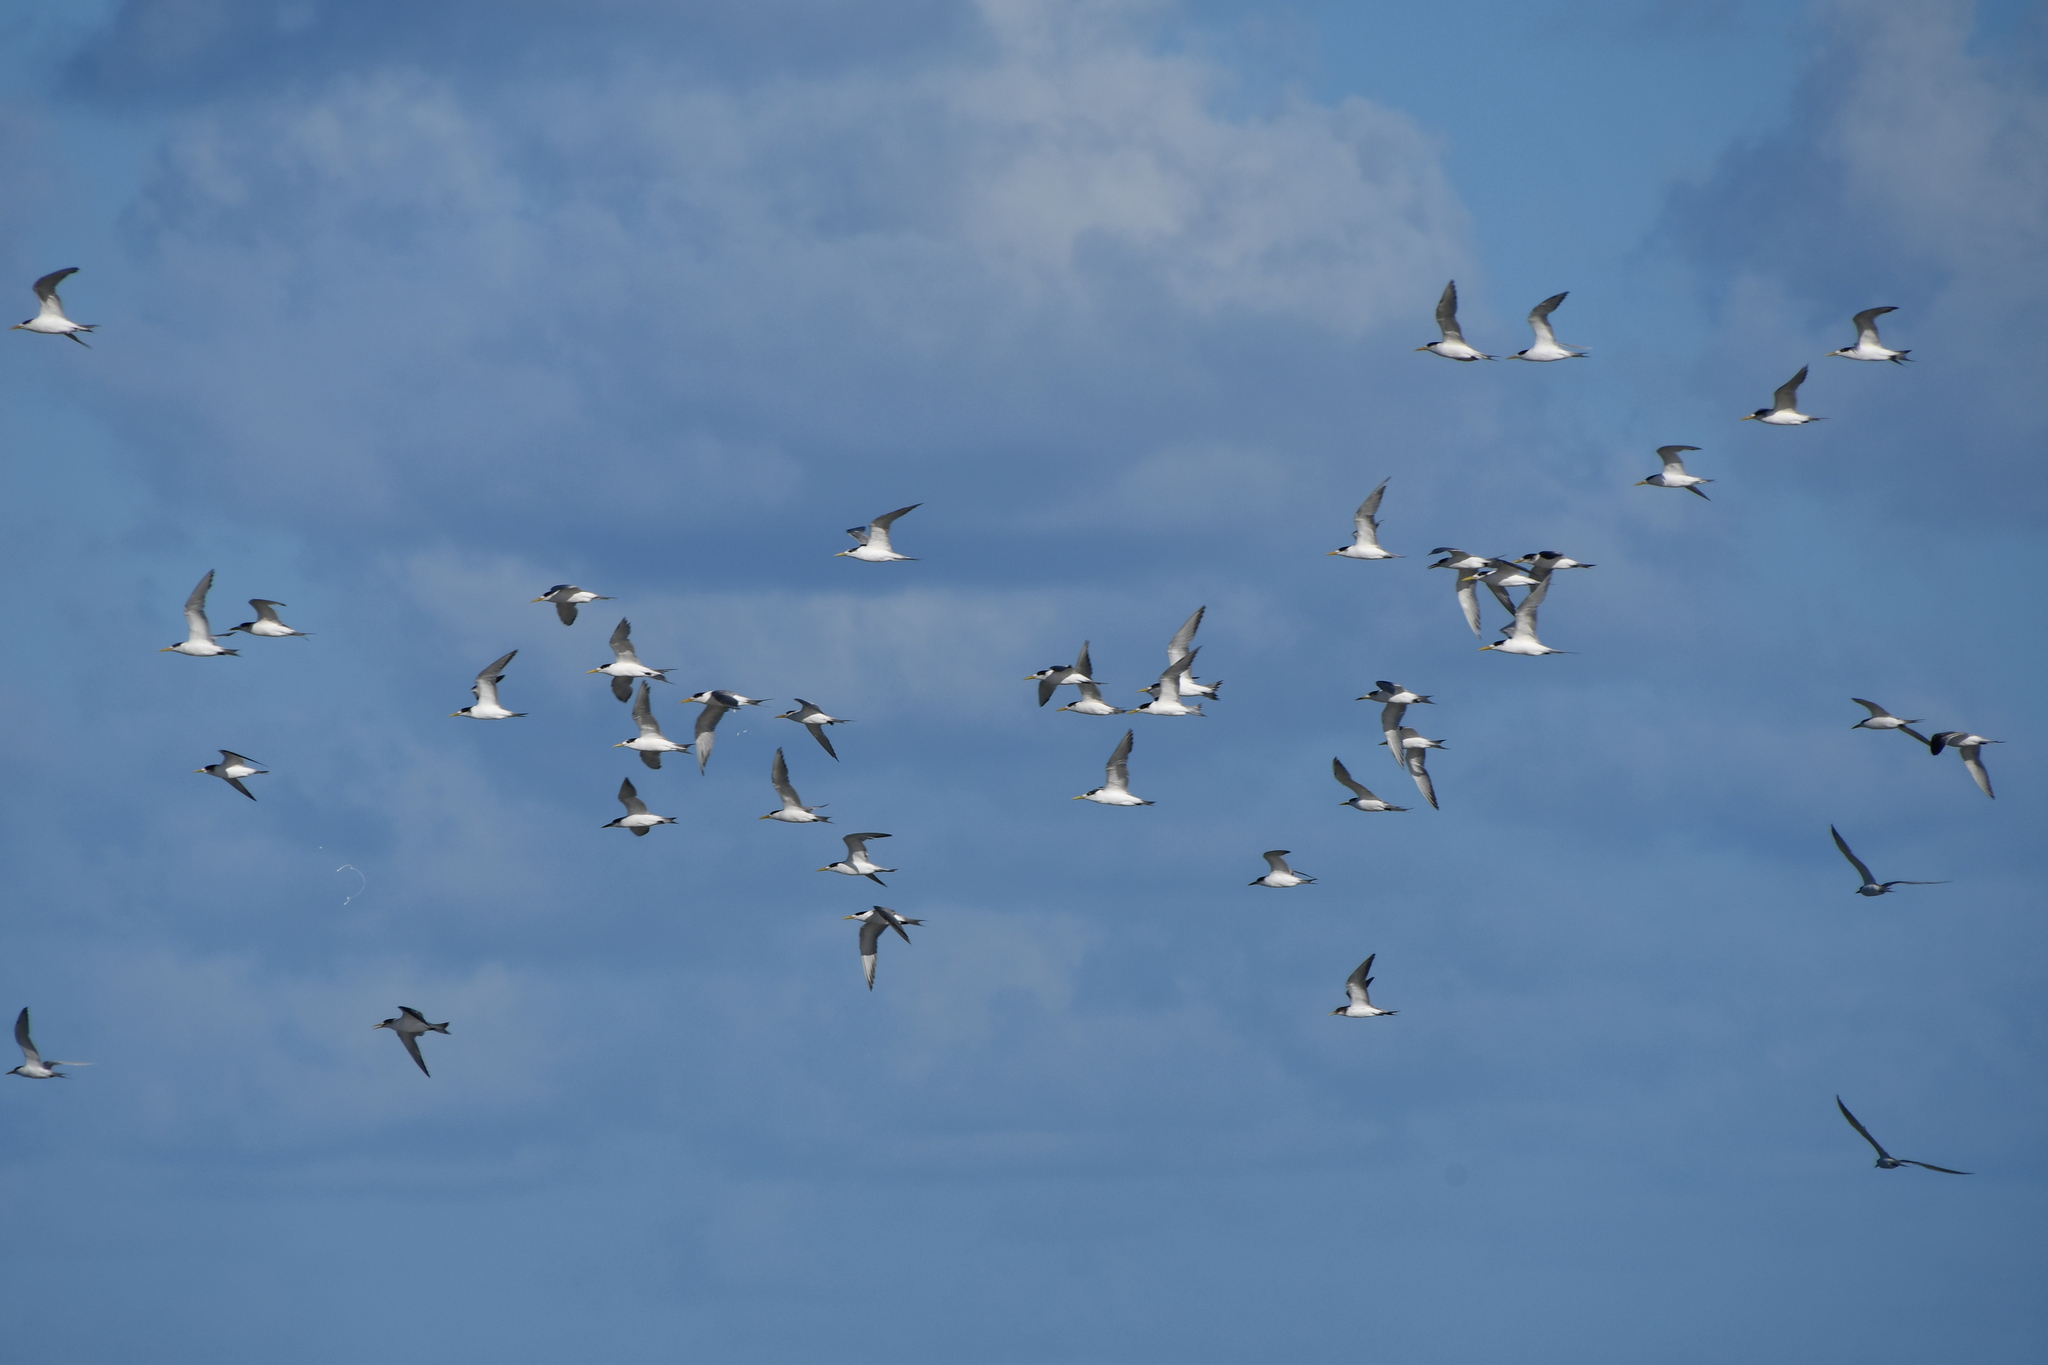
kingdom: Animalia
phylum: Chordata
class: Aves
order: Charadriiformes
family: Laridae
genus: Thalasseus
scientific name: Thalasseus bergii
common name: Greater crested tern
